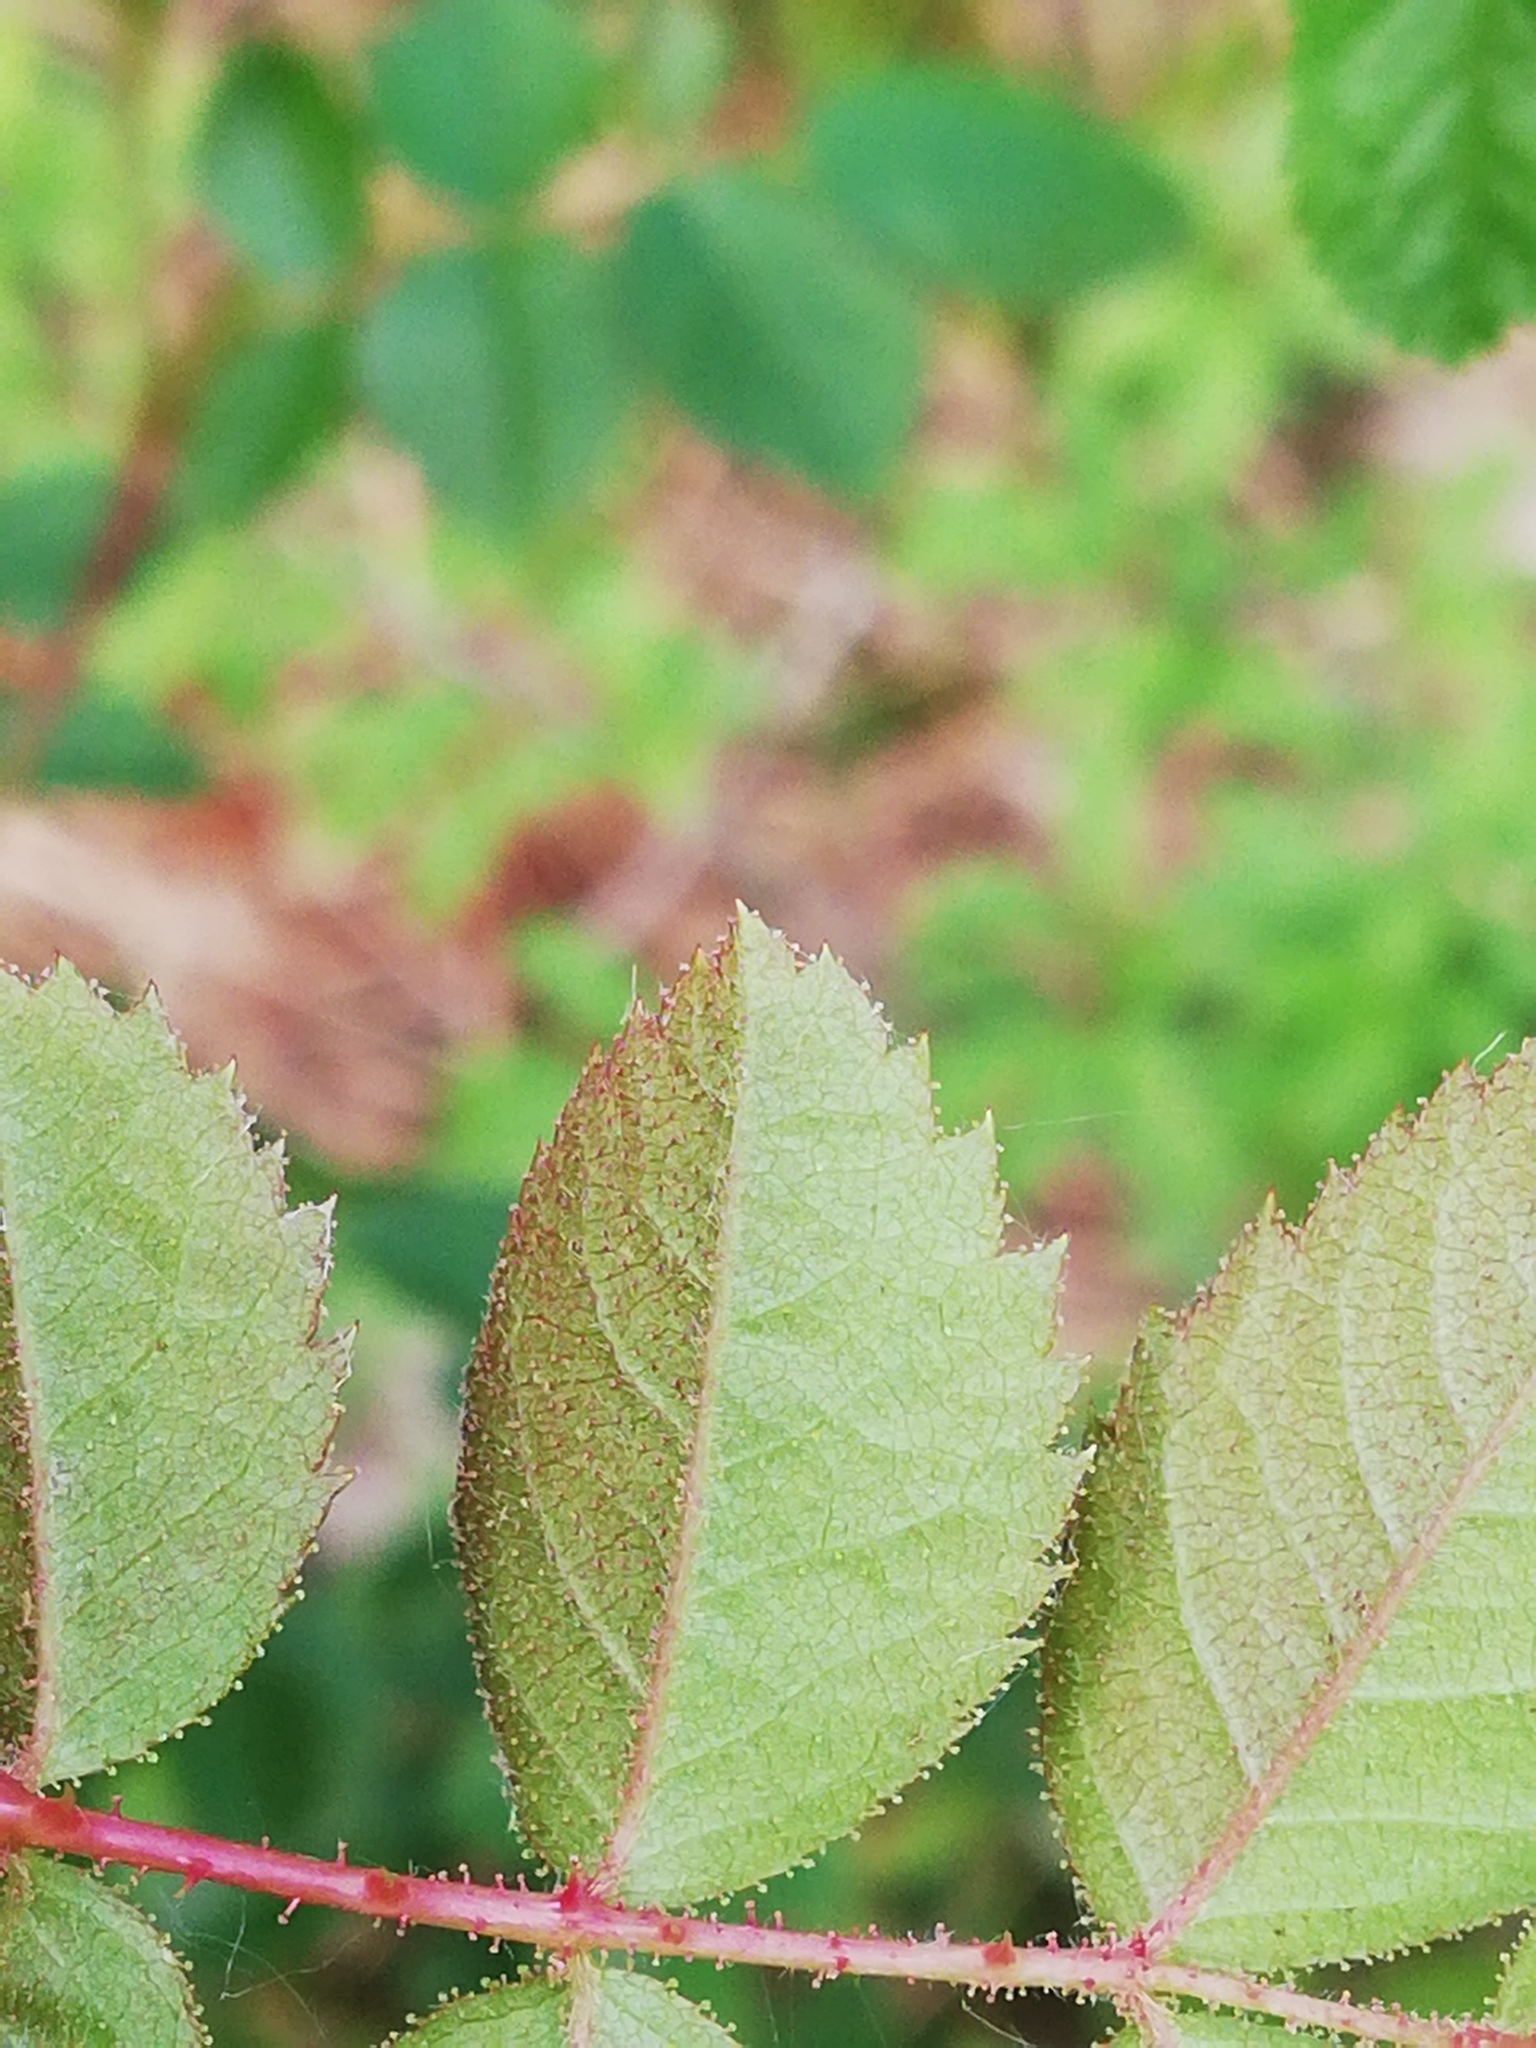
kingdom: Plantae
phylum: Tracheophyta
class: Magnoliopsida
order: Rosales
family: Rosaceae
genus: Rosa
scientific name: Rosa rubiginosa
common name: Sweet-briar
